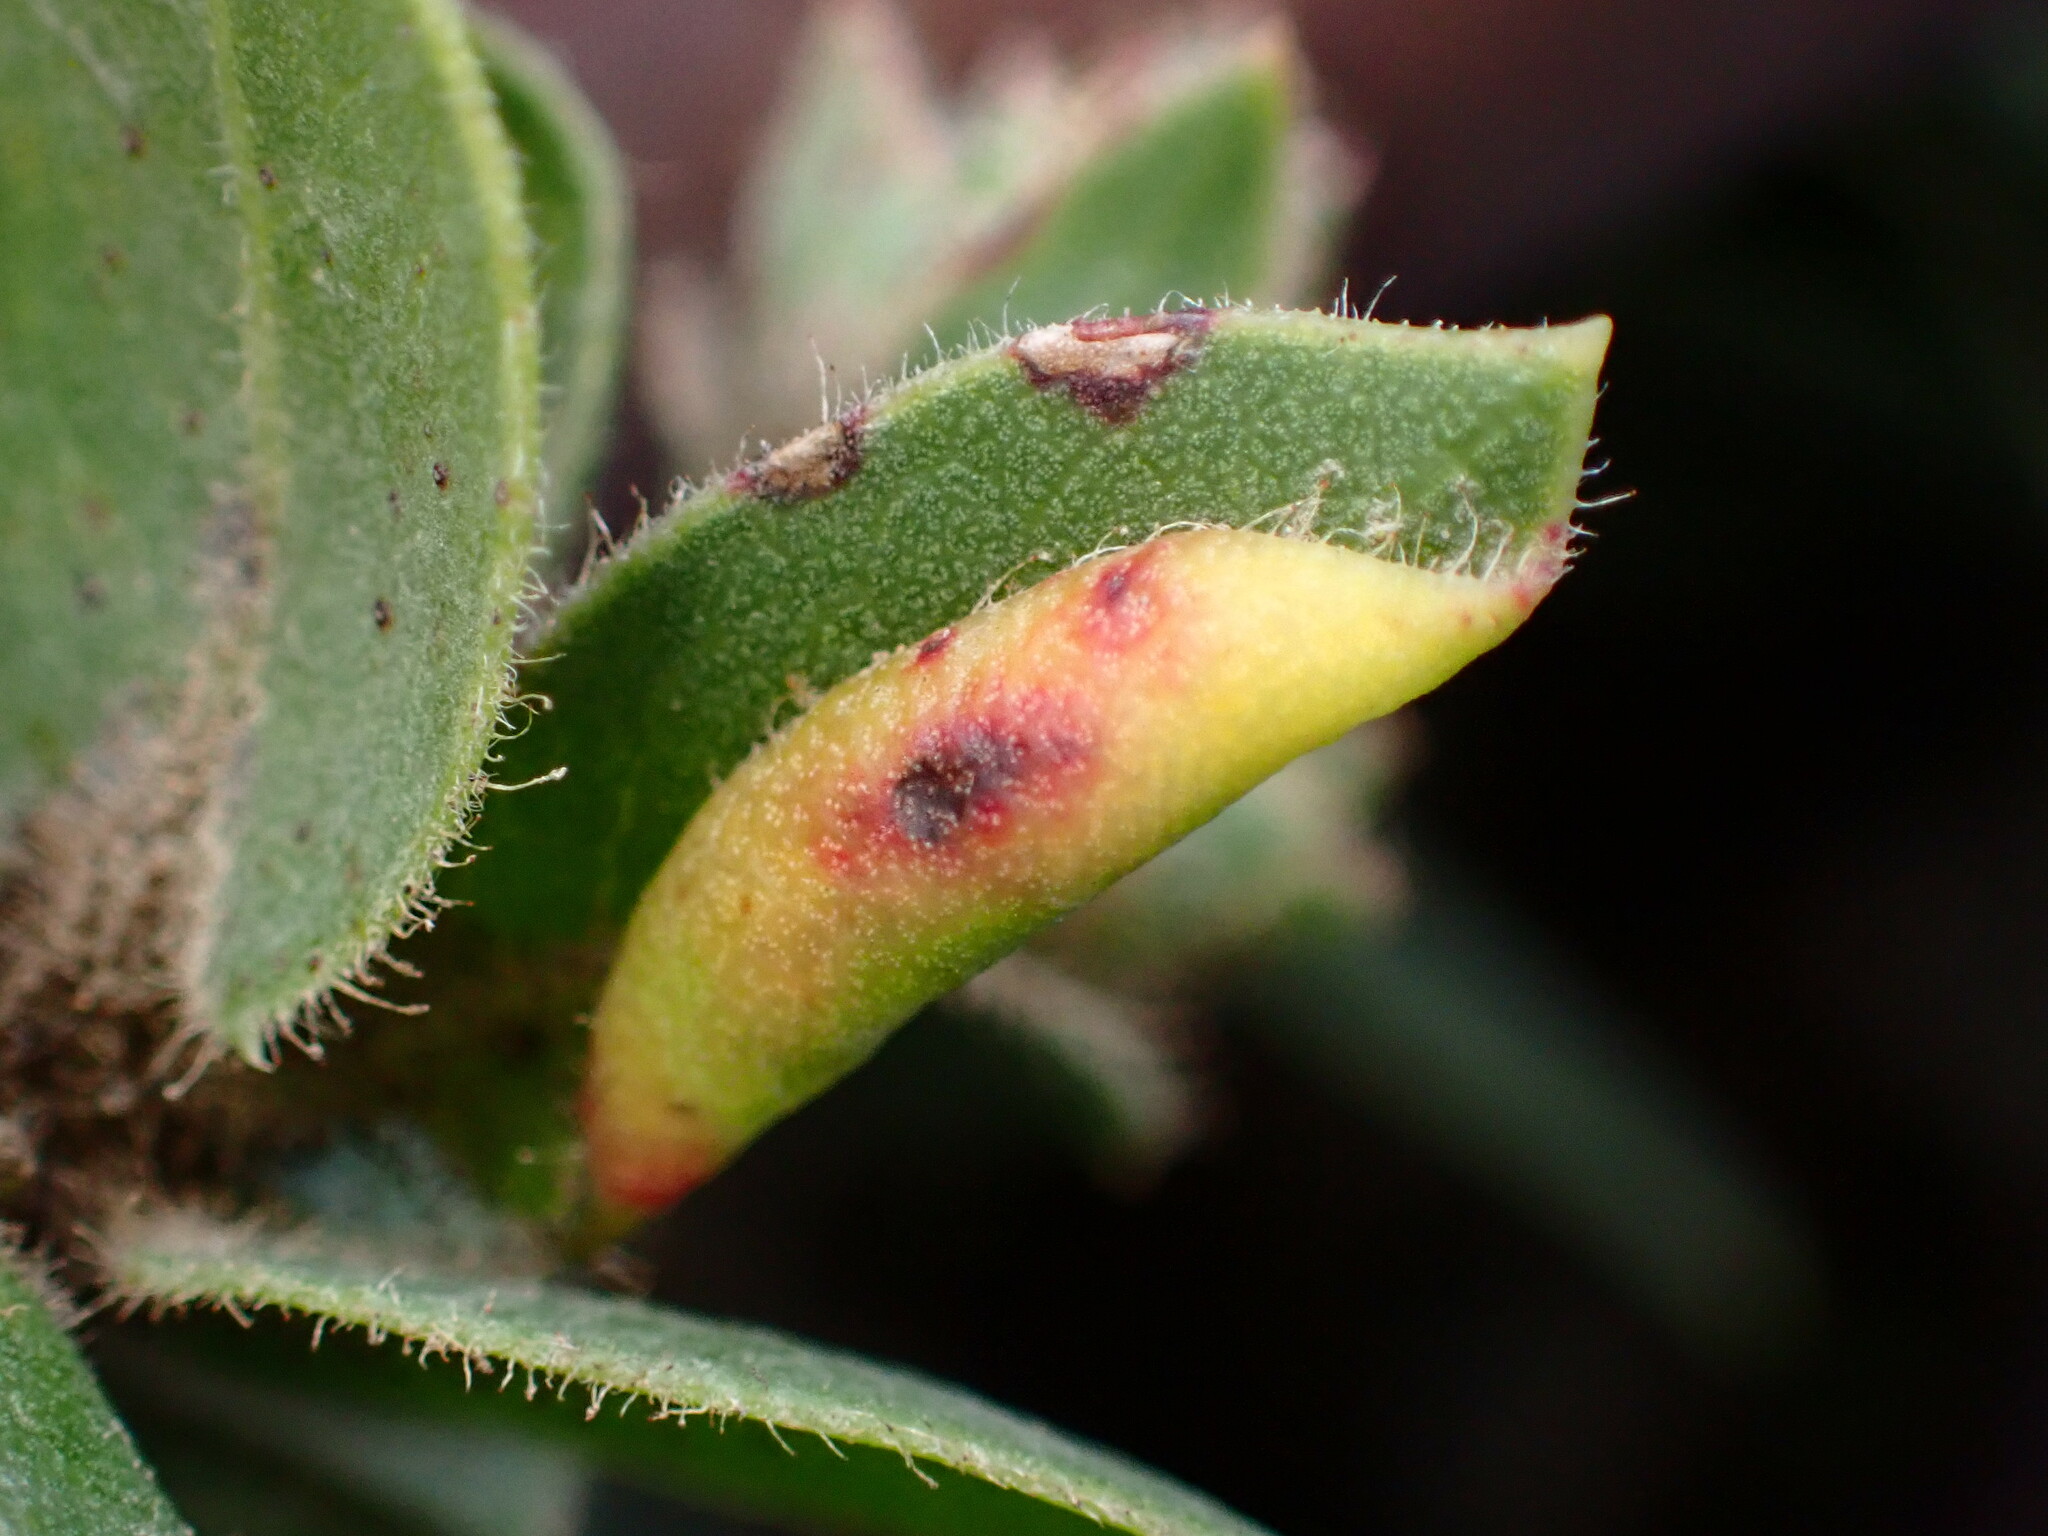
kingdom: Animalia
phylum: Arthropoda
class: Insecta
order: Hemiptera
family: Aphididae
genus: Tamalia
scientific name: Tamalia coweni
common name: Manzanita leafgall aphid
